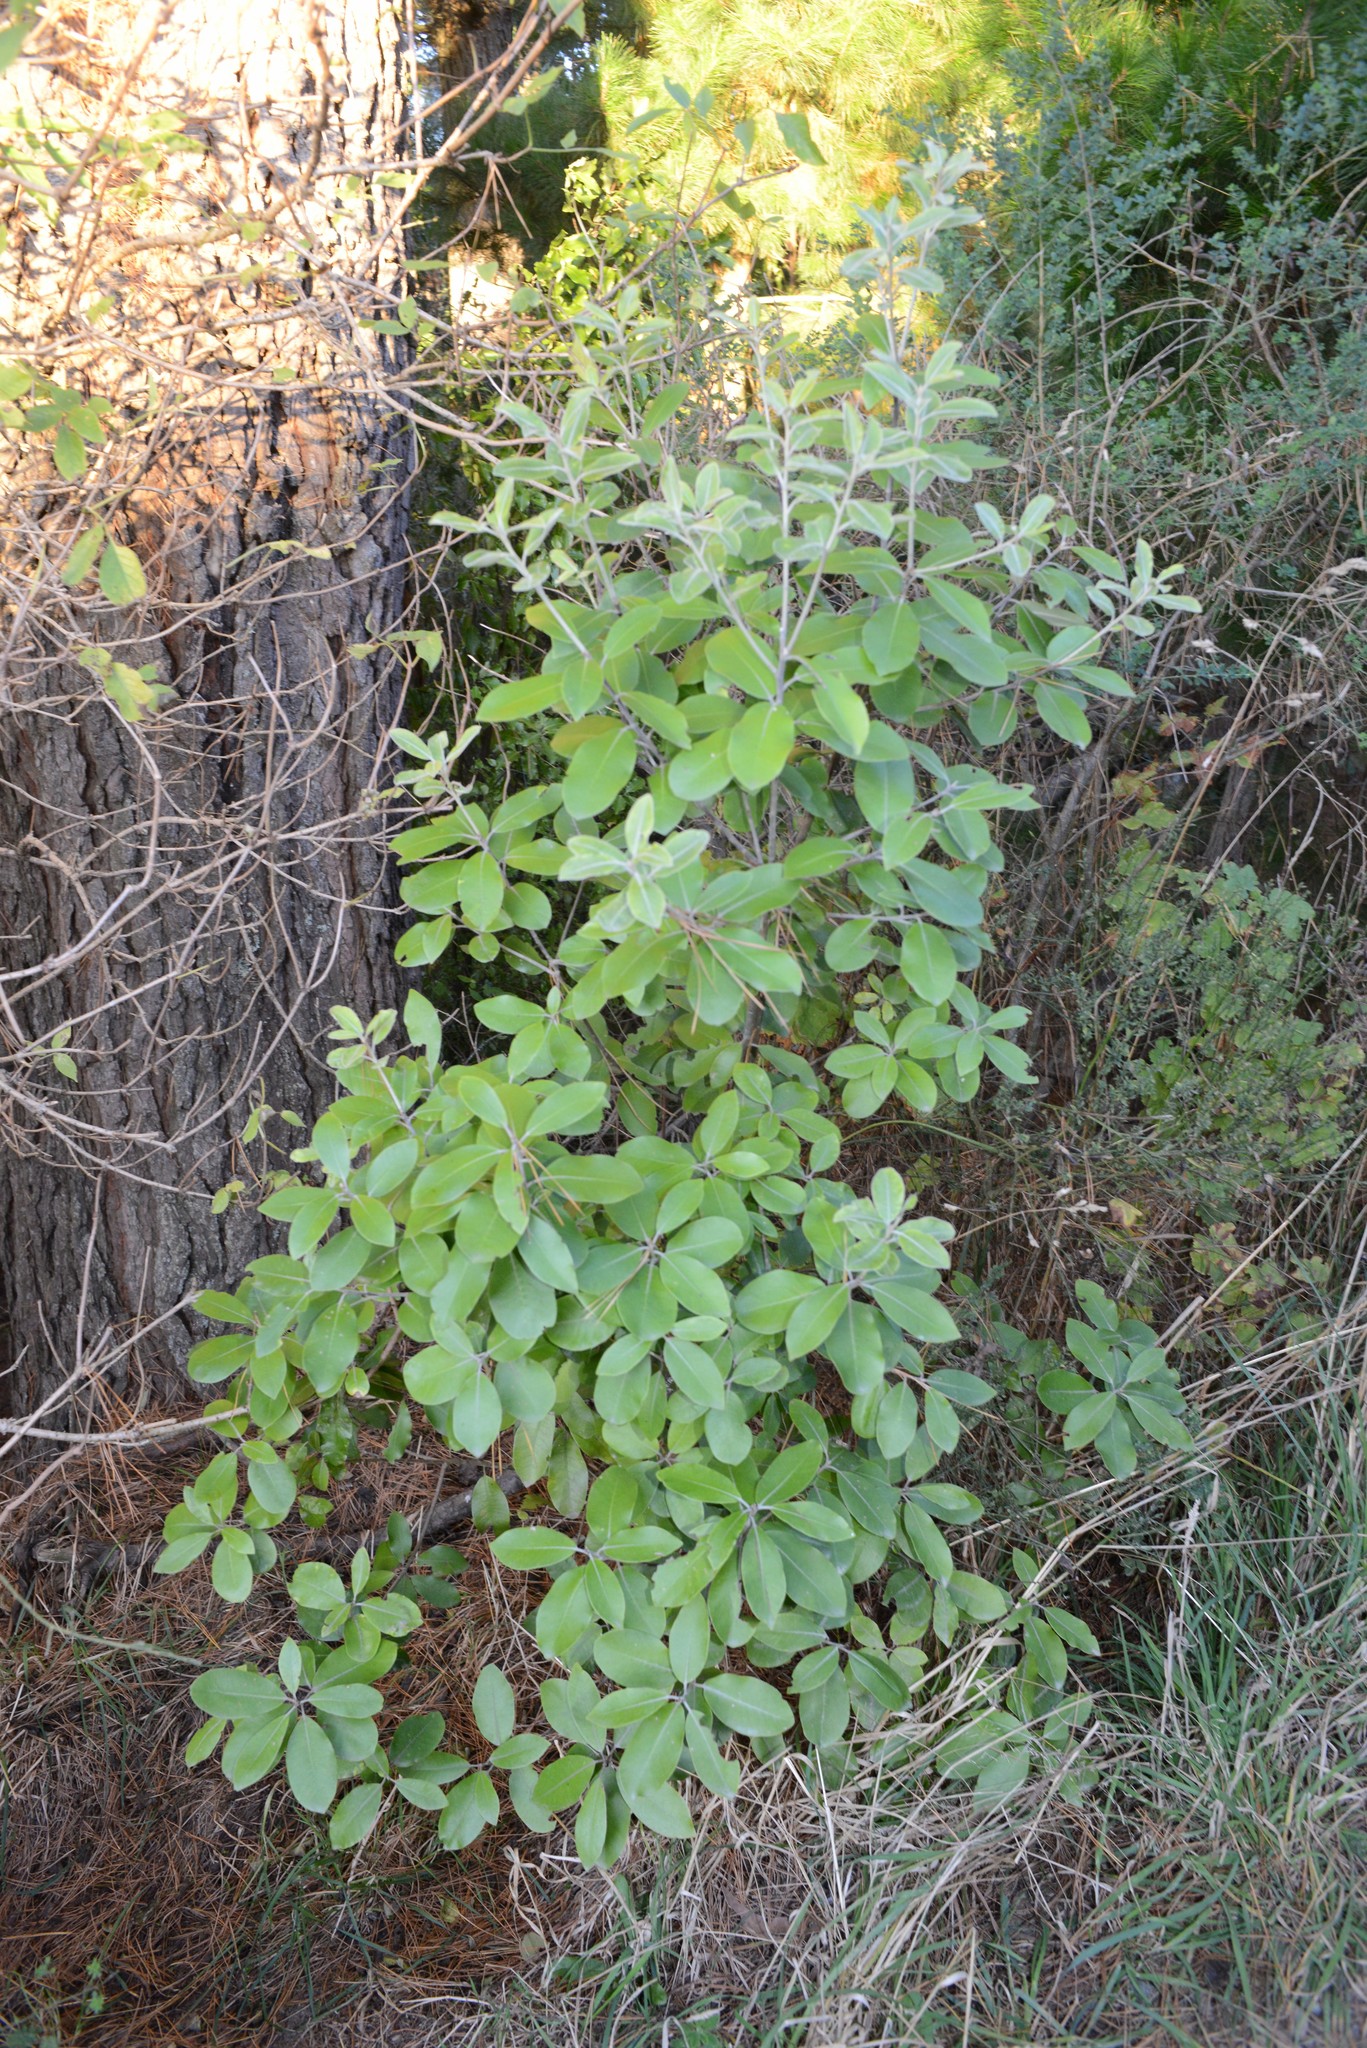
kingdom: Plantae
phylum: Tracheophyta
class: Magnoliopsida
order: Apiales
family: Pittosporaceae
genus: Pittosporum
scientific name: Pittosporum ralphii
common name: Ralph's desertwillow
